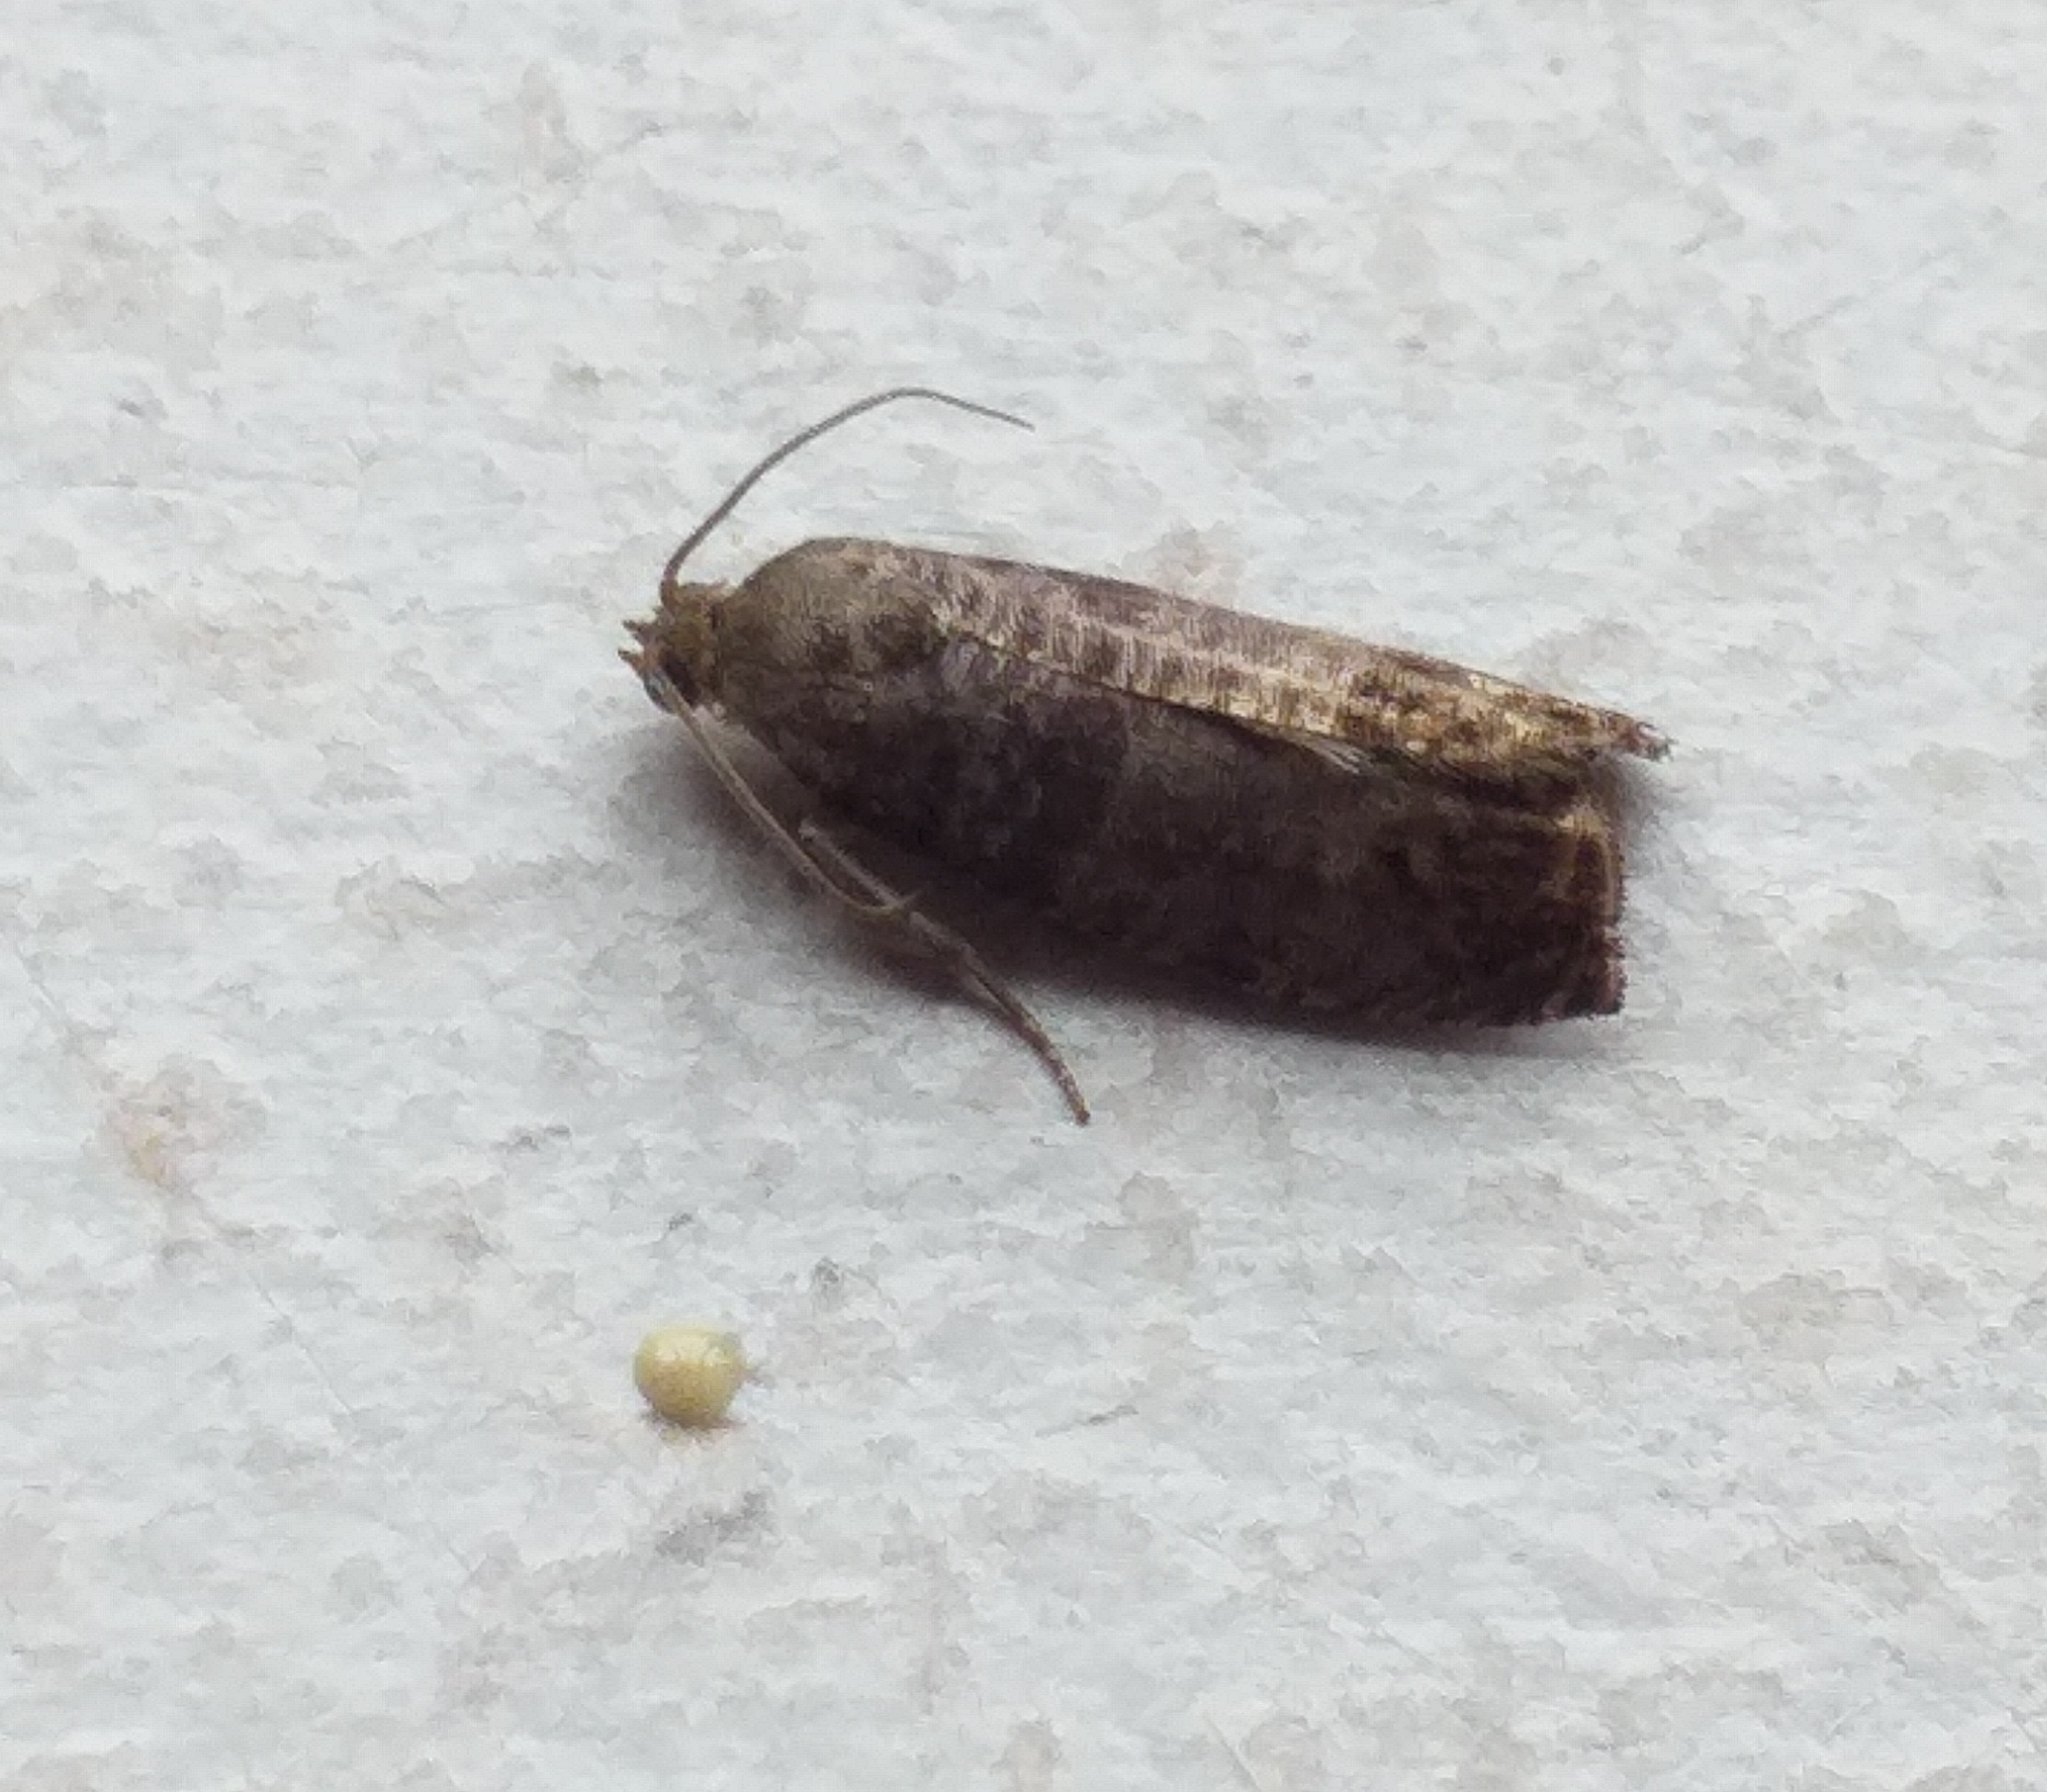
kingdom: Animalia
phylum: Arthropoda
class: Insecta
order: Lepidoptera
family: Tortricidae
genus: Cydia
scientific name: Cydia pomonella
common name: Codling moth
